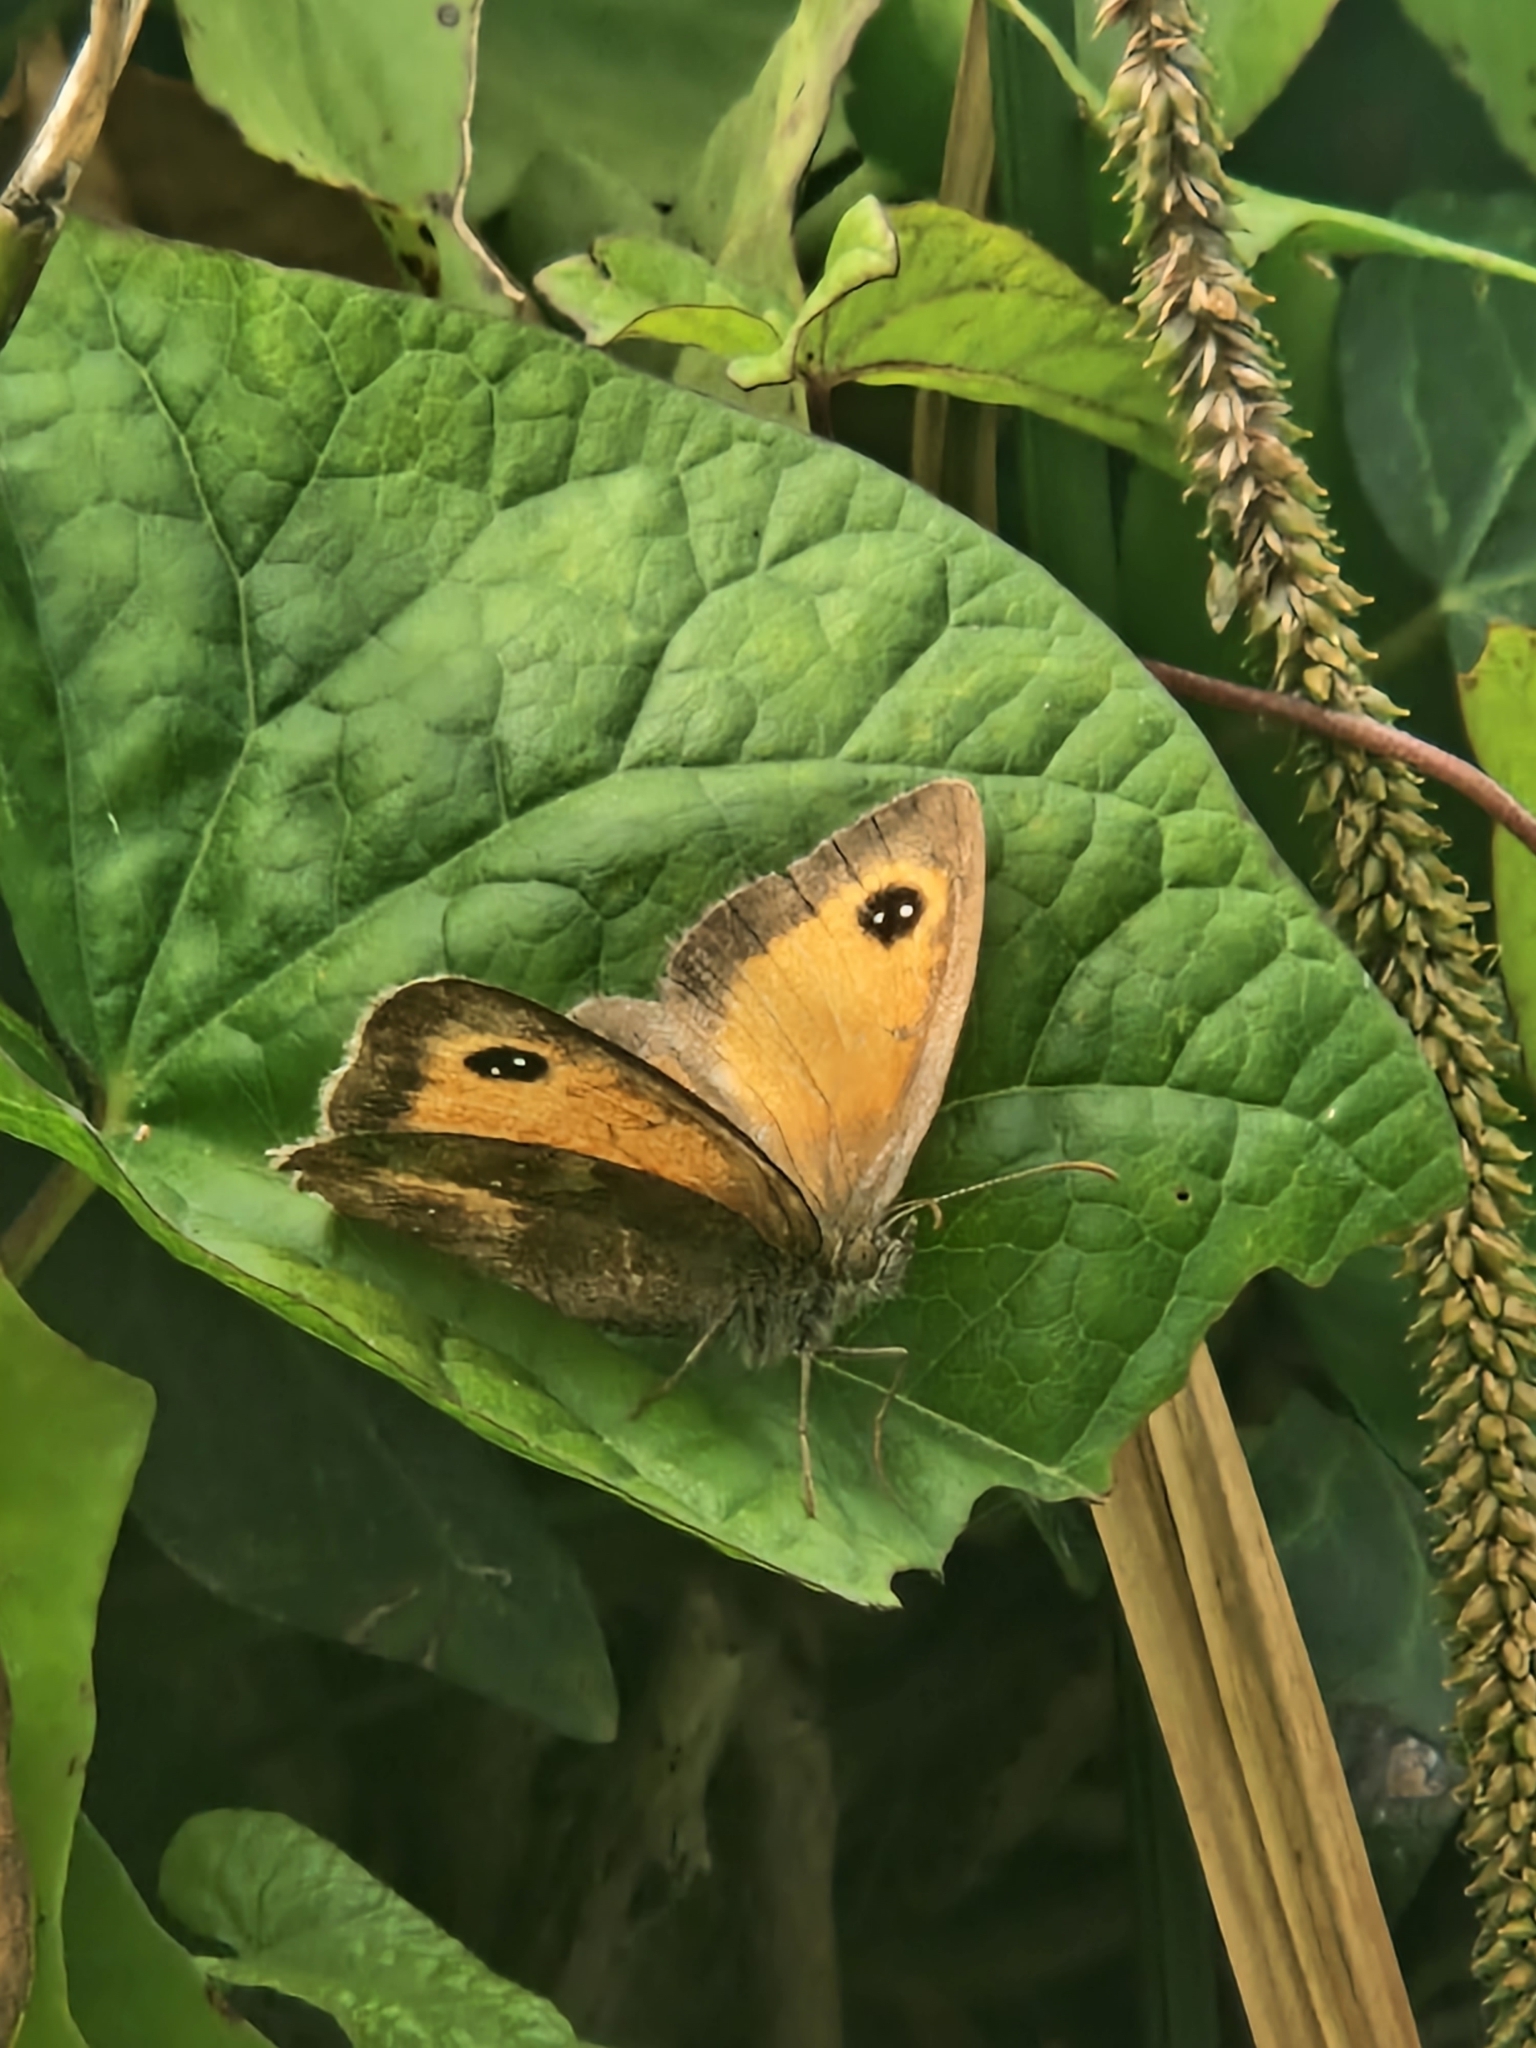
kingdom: Animalia
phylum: Arthropoda
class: Insecta
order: Lepidoptera
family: Nymphalidae
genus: Pyronia
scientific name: Pyronia tithonus
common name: Gatekeeper
